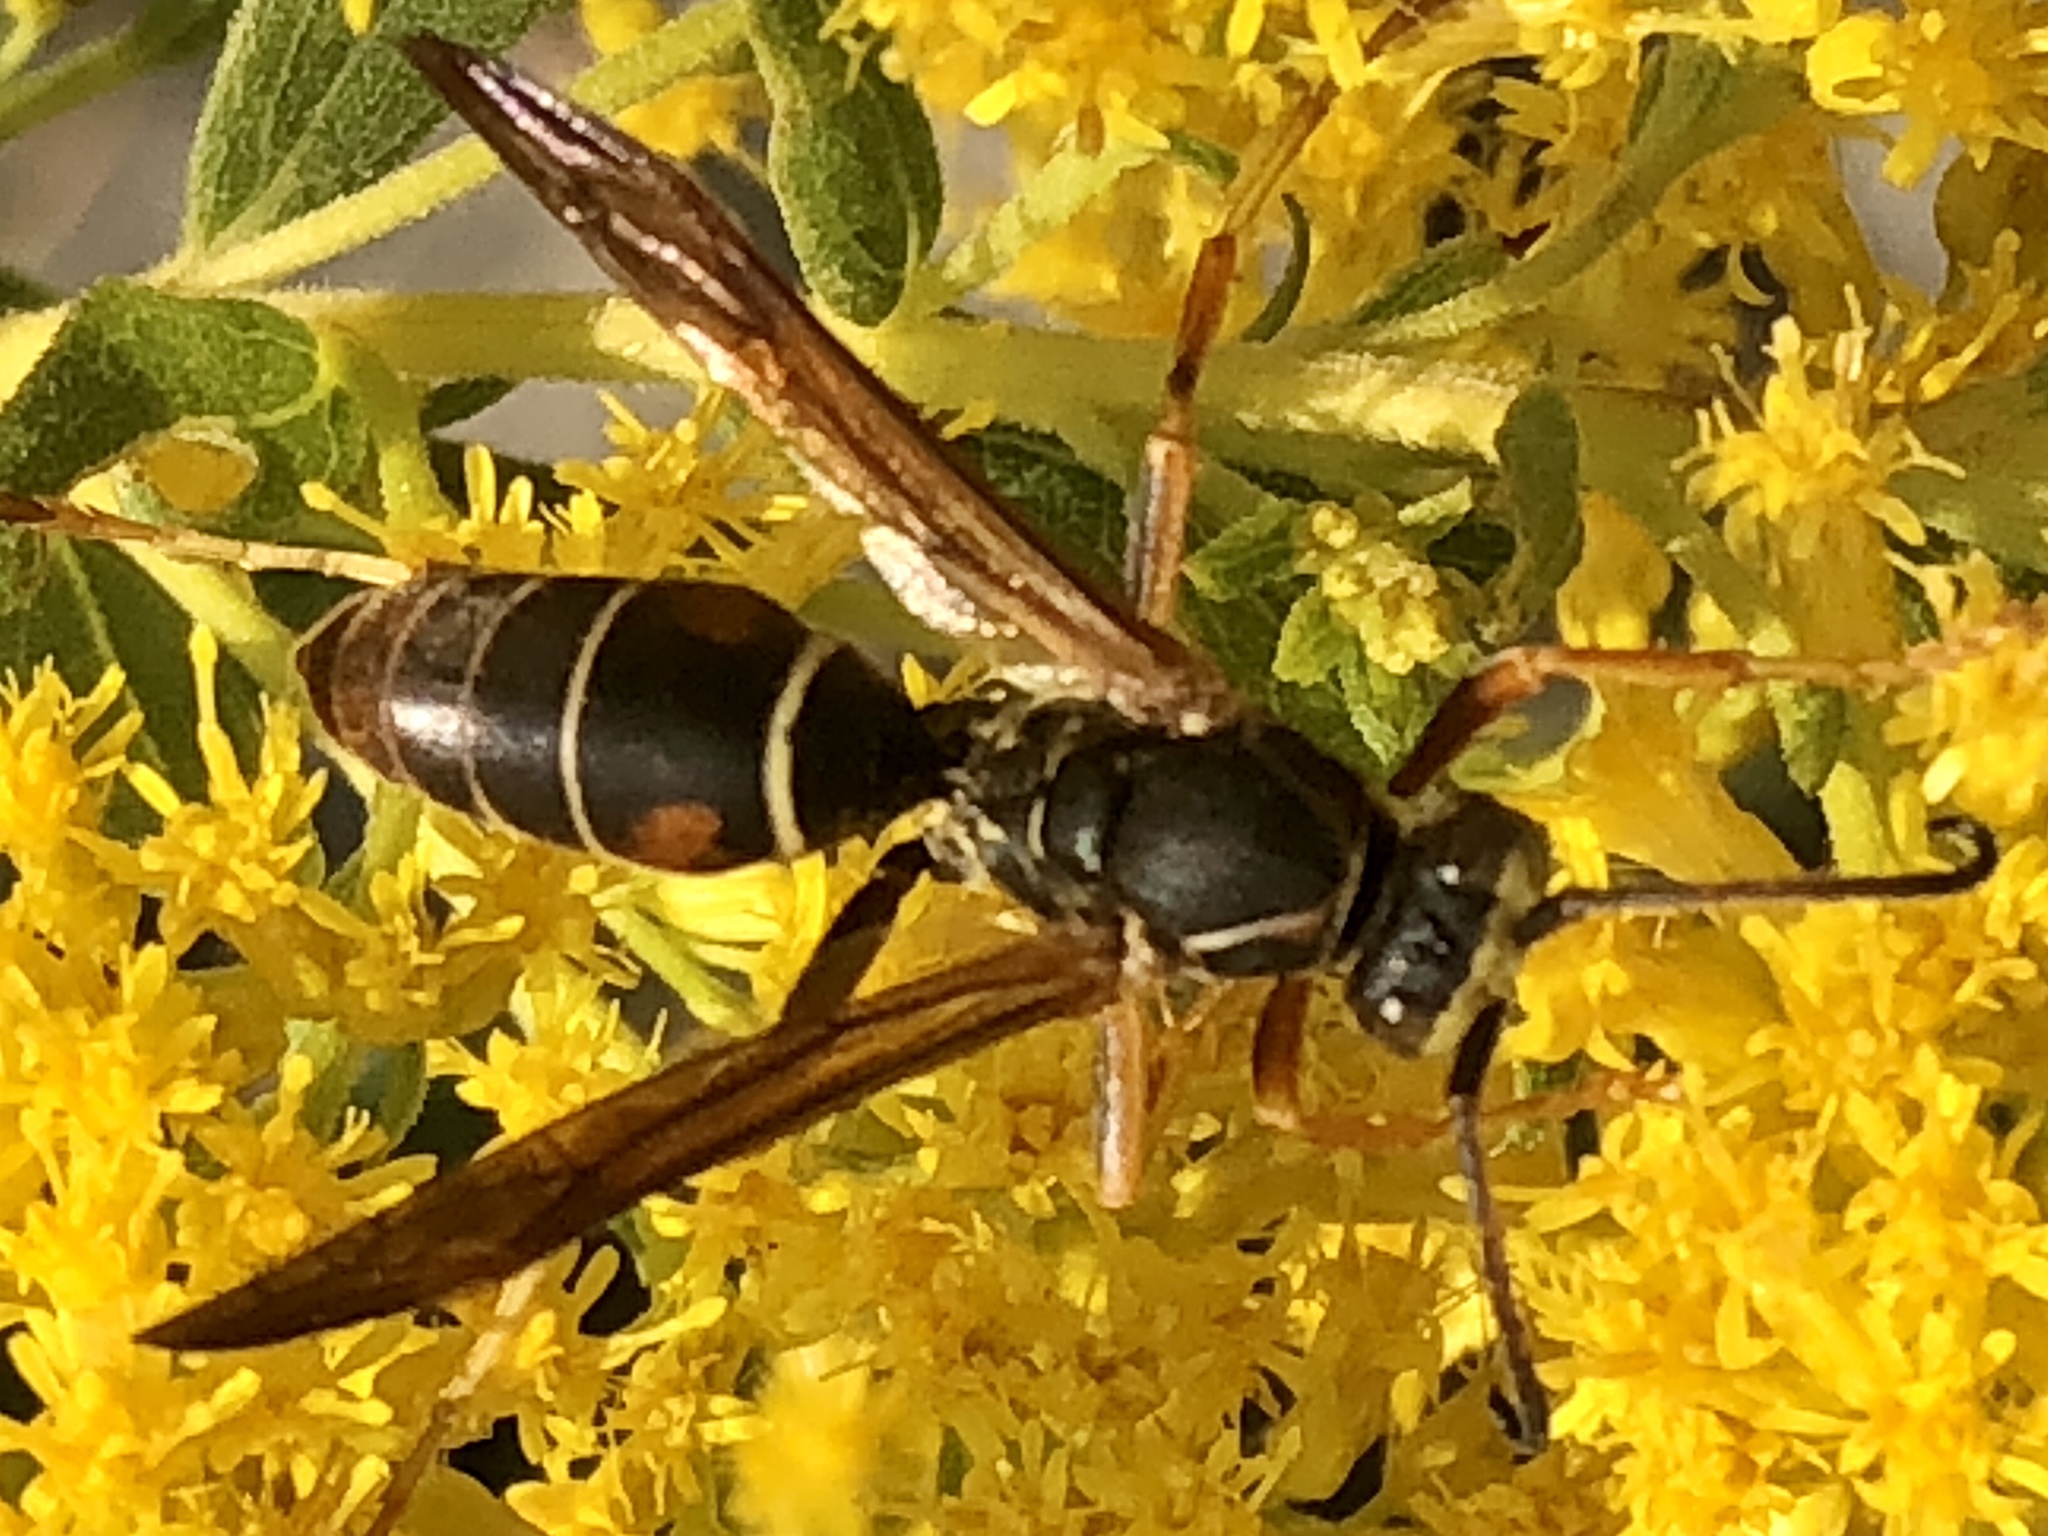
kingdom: Animalia
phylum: Arthropoda
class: Insecta
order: Hymenoptera
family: Eumenidae
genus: Polistes
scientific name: Polistes fuscatus
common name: Dark paper wasp
